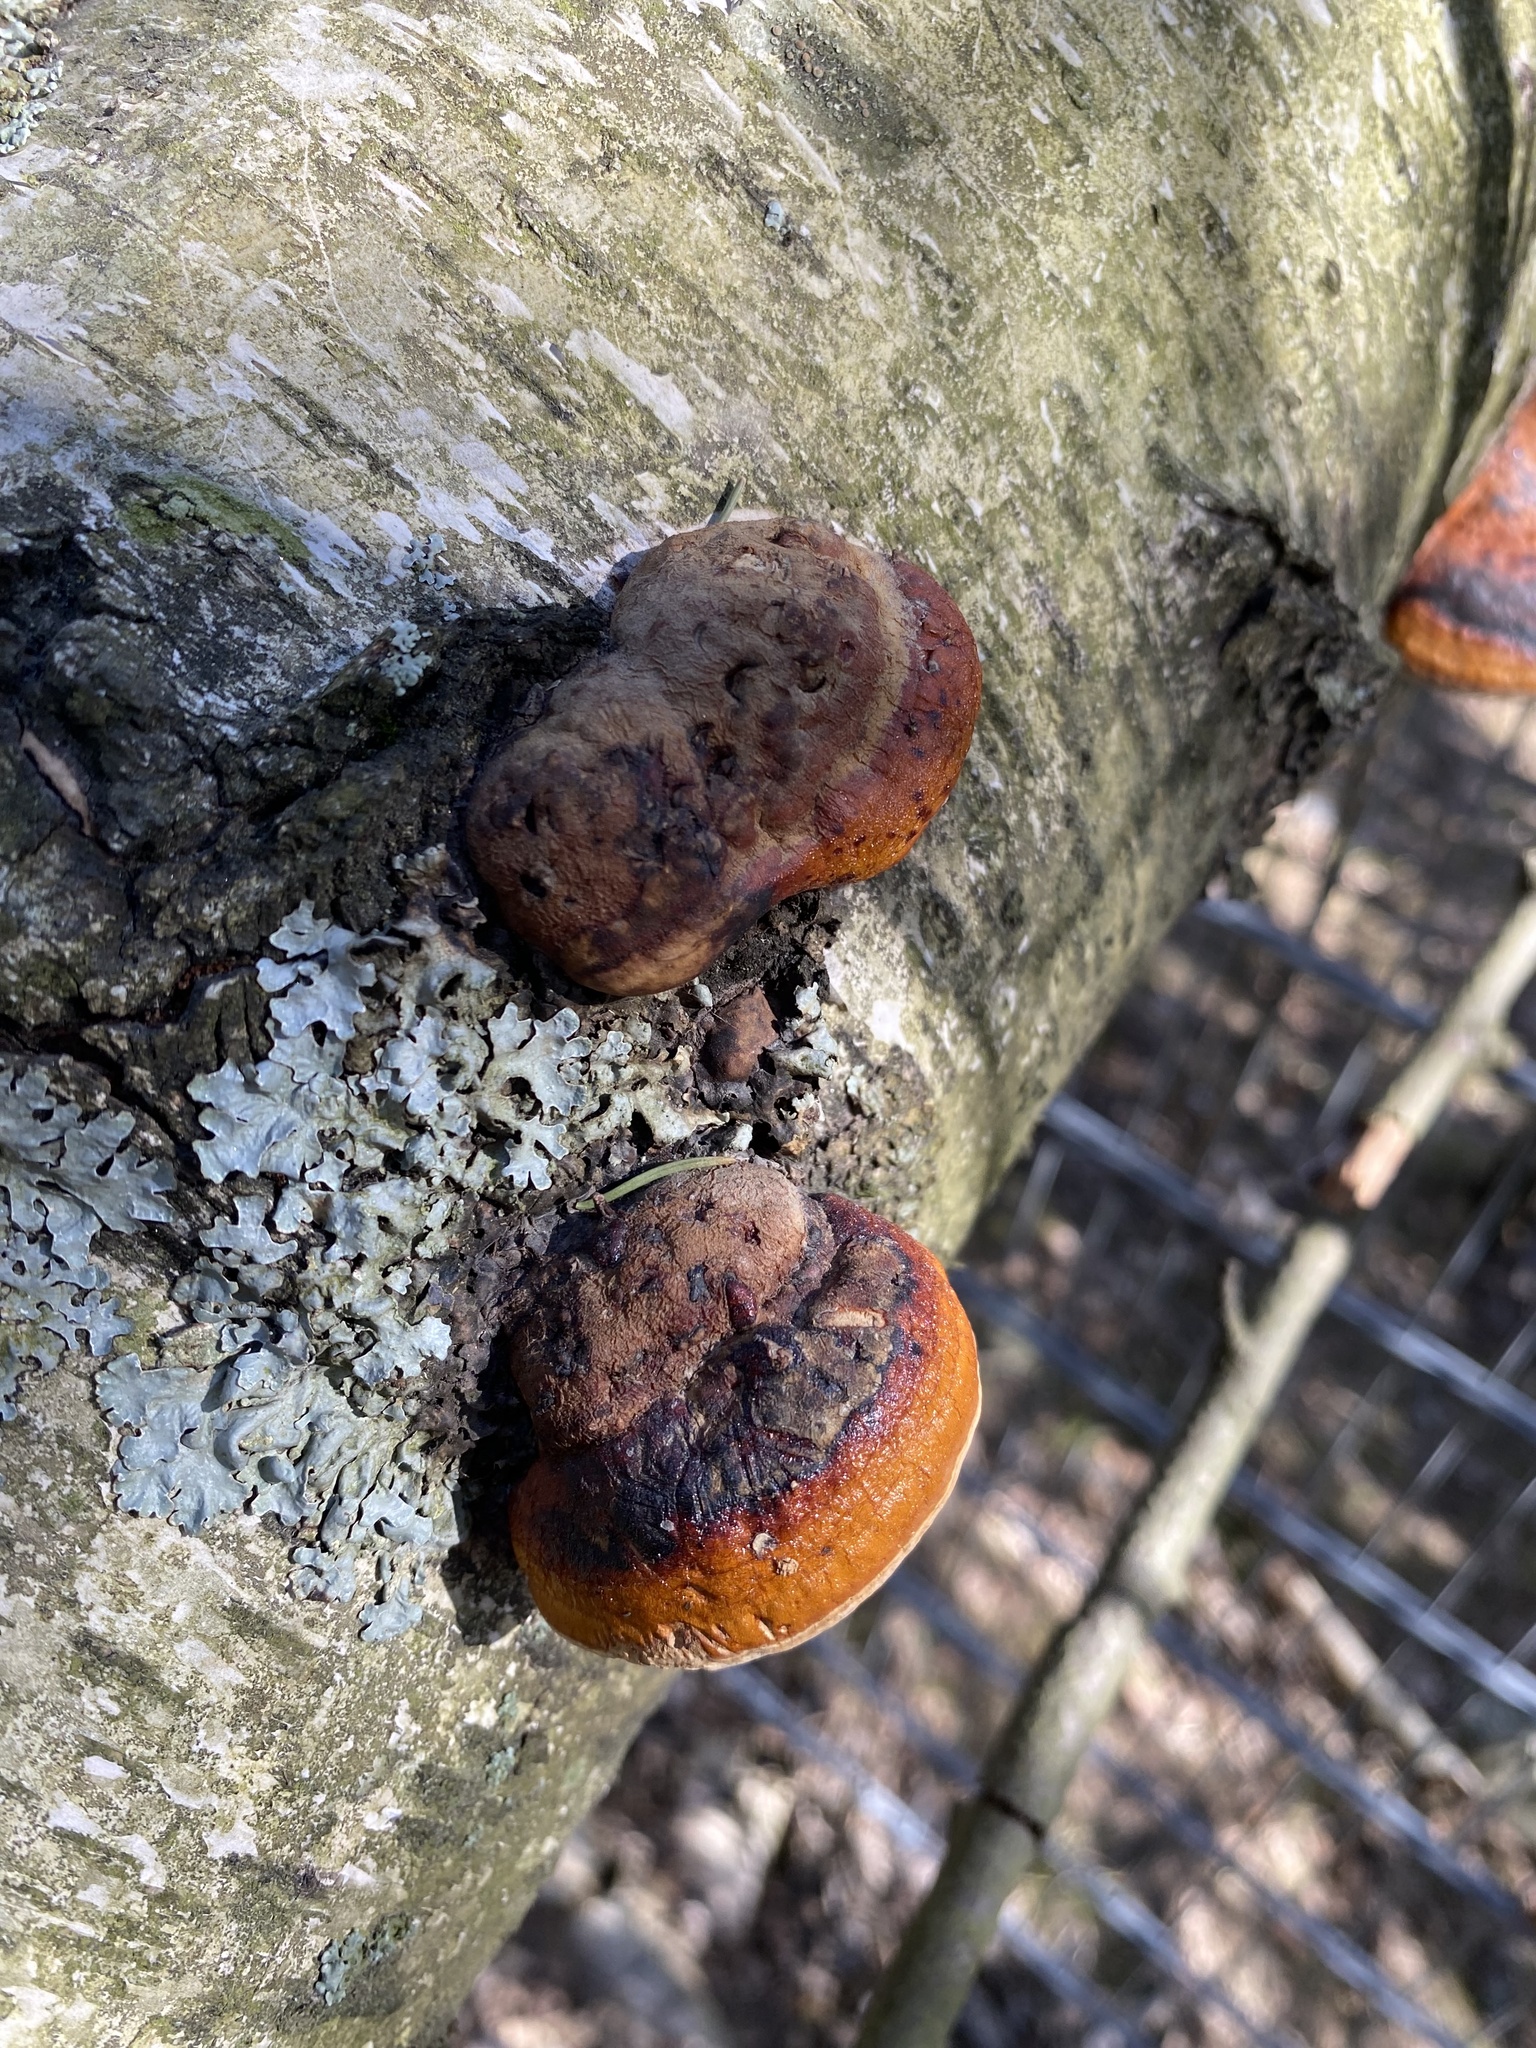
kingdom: Fungi
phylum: Basidiomycota
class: Agaricomycetes
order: Polyporales
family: Fomitopsidaceae
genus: Fomitopsis
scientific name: Fomitopsis pinicola
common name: Red-belted bracket
